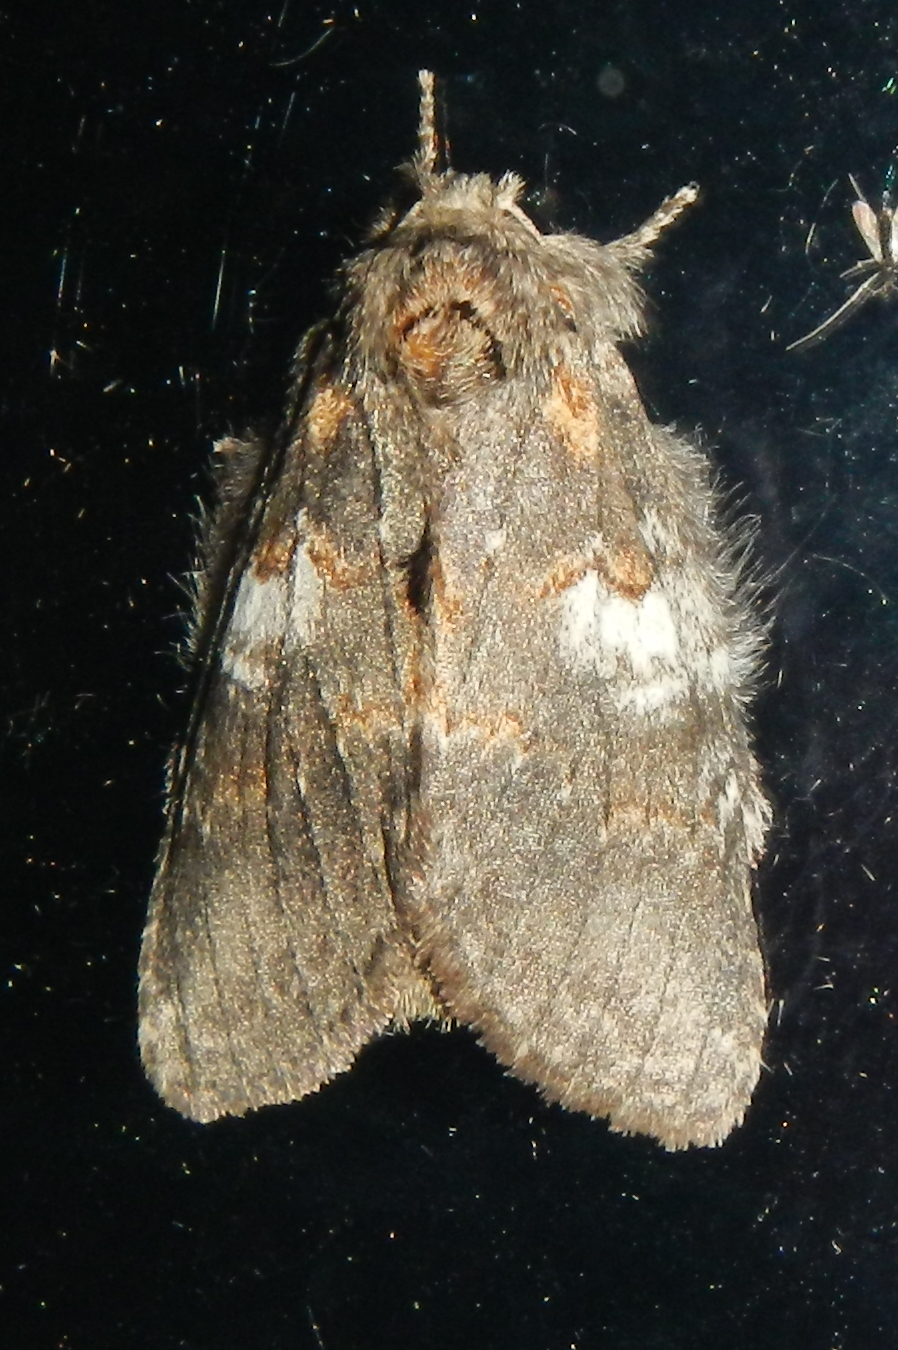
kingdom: Animalia
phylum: Arthropoda
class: Insecta
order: Lepidoptera
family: Notodontidae
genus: Peridea
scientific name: Peridea angulosa
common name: Angulose prominent
